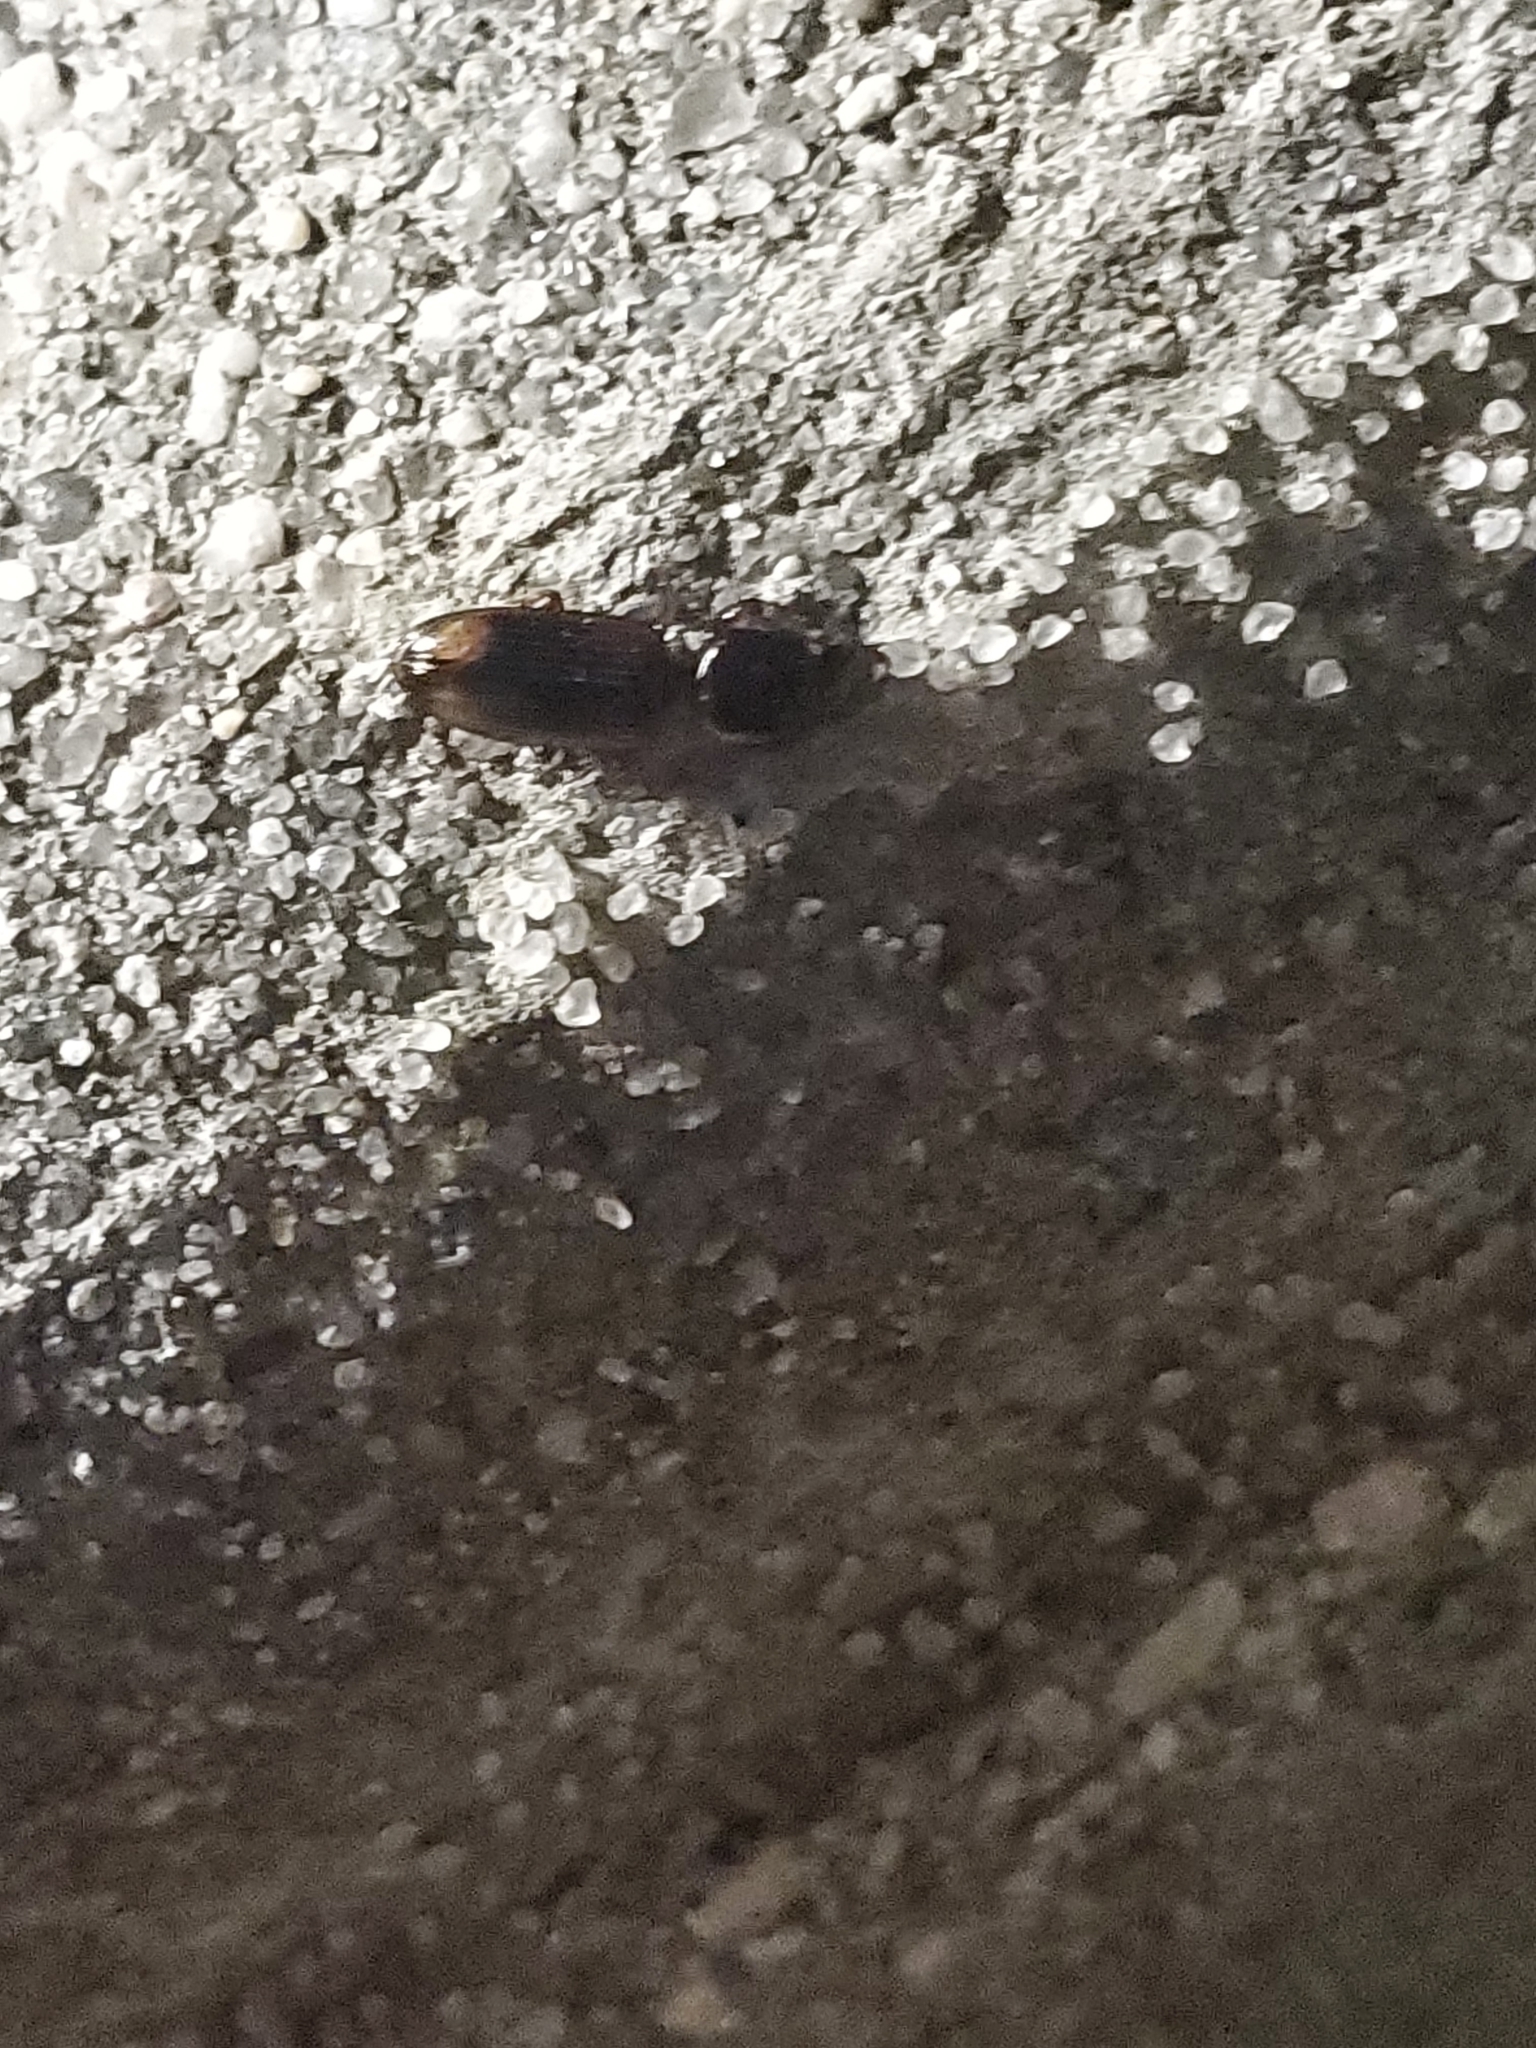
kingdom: Animalia
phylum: Arthropoda
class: Insecta
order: Coleoptera
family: Carabidae
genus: Clivina
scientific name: Clivina bipustulata
